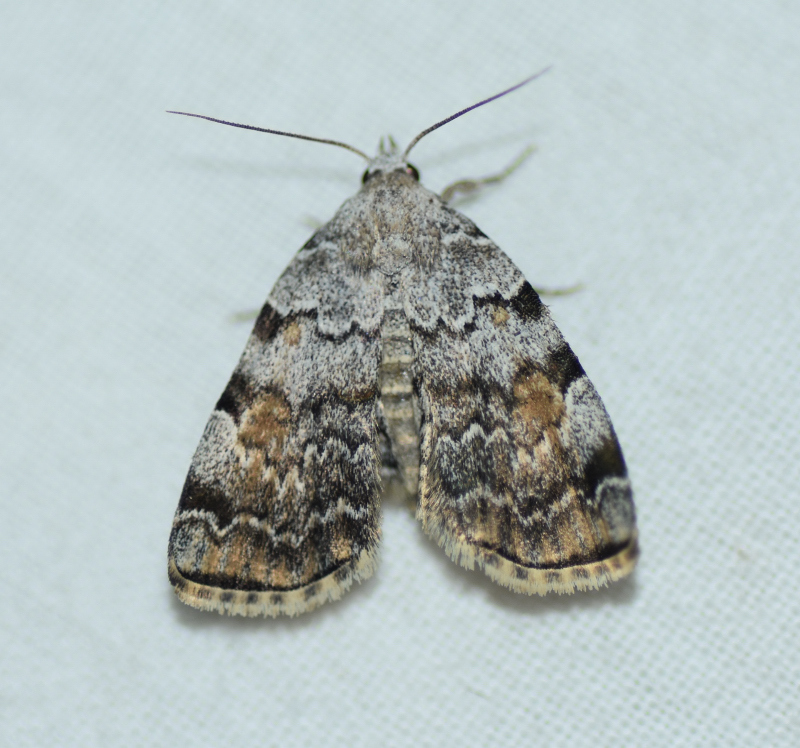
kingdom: Animalia
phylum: Arthropoda
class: Insecta
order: Lepidoptera
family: Erebidae
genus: Idia
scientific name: Idia americalis
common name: American idia moth
